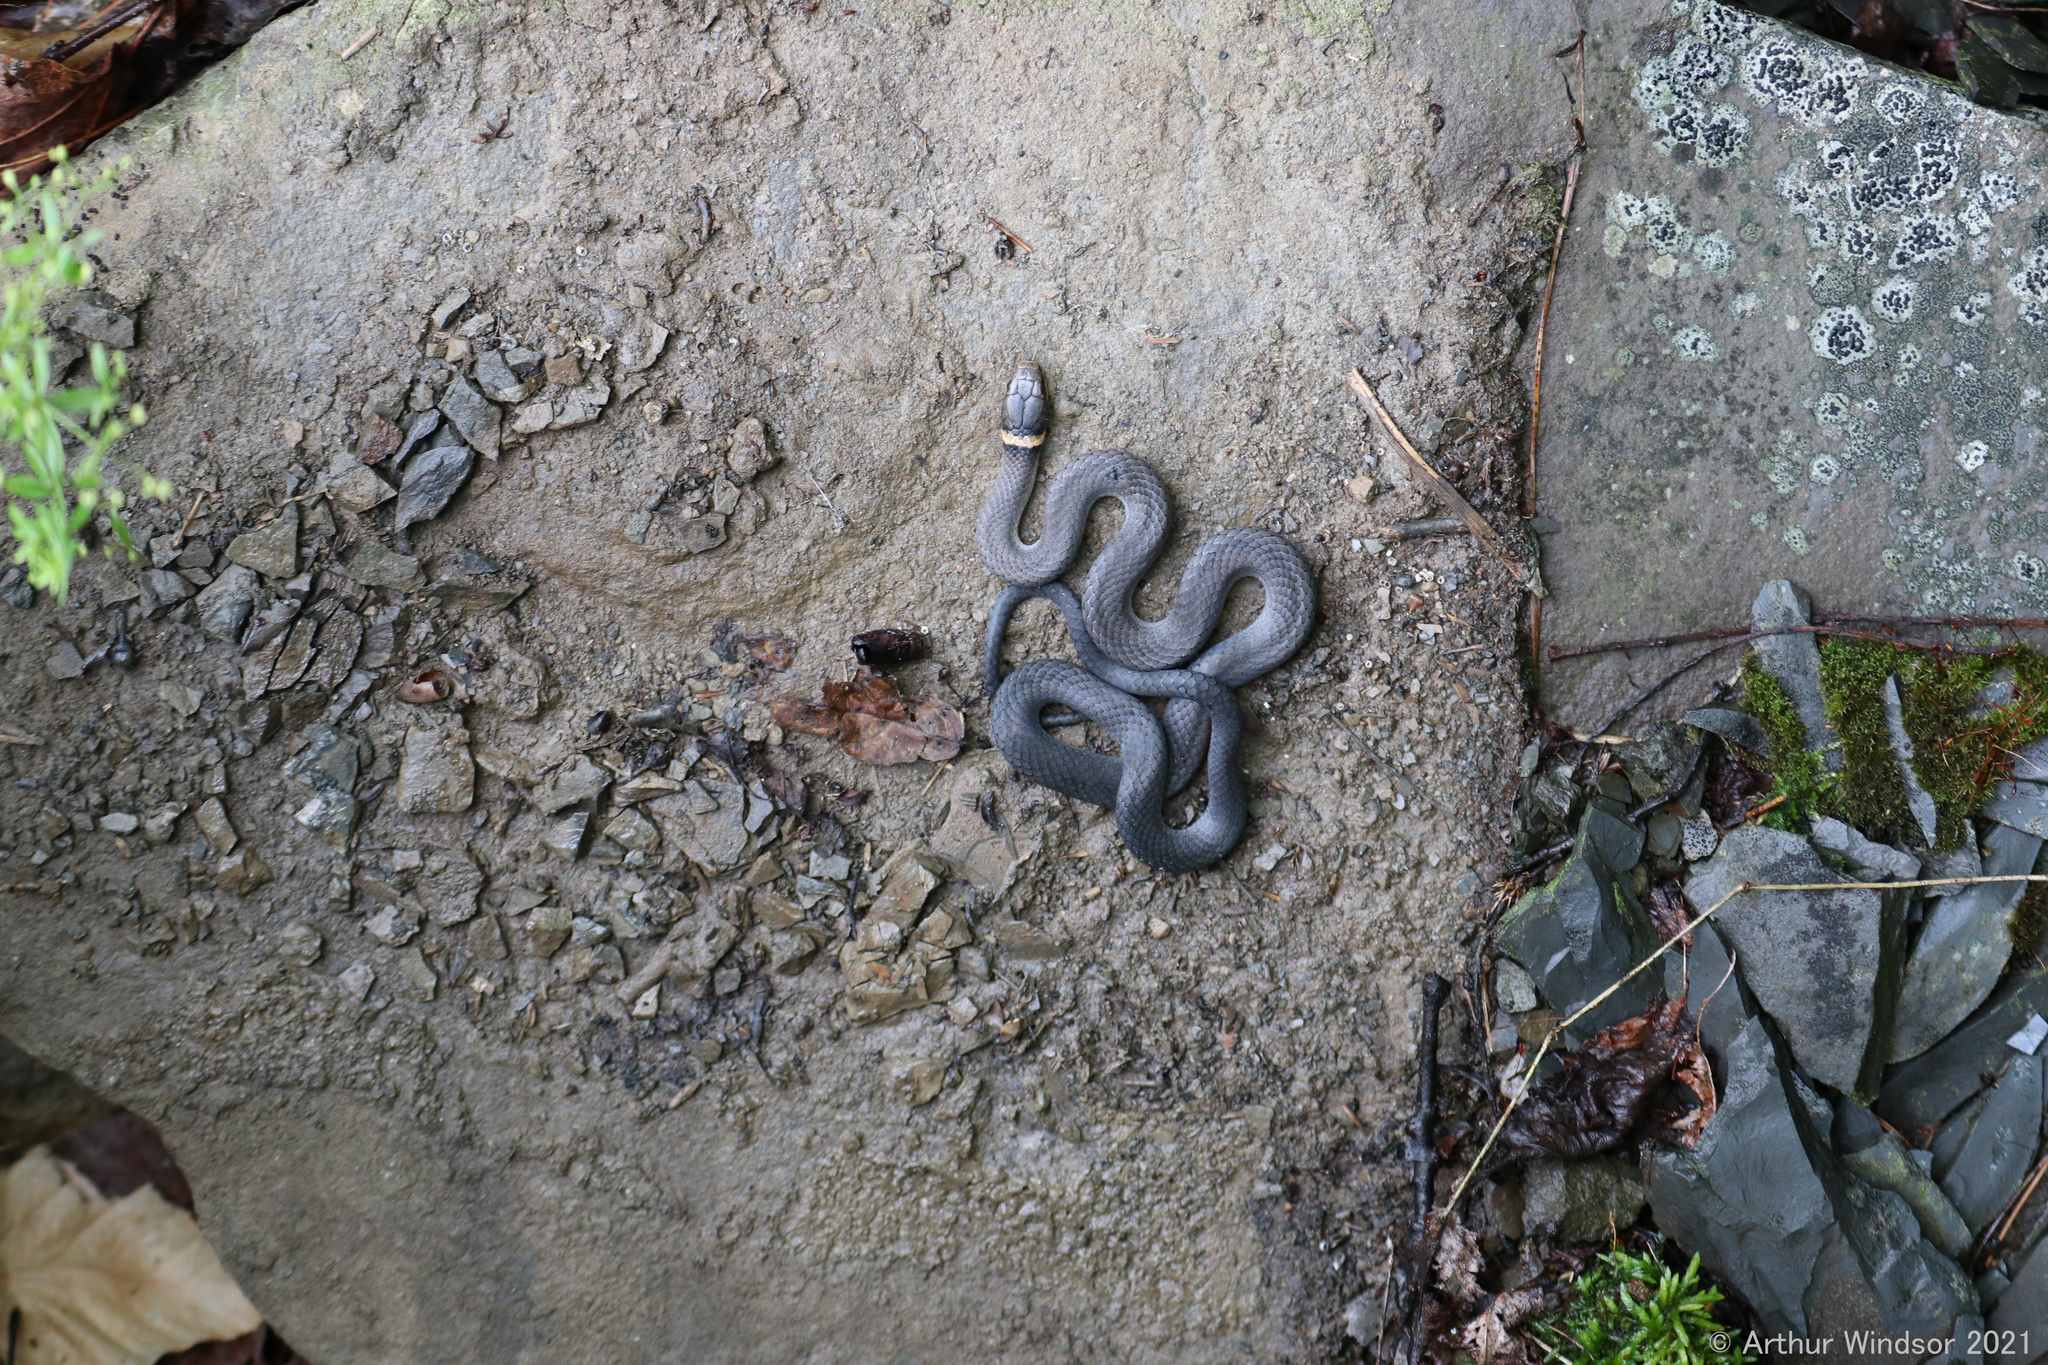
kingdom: Animalia
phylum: Chordata
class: Squamata
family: Colubridae
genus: Diadophis
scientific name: Diadophis punctatus
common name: Ringneck snake
